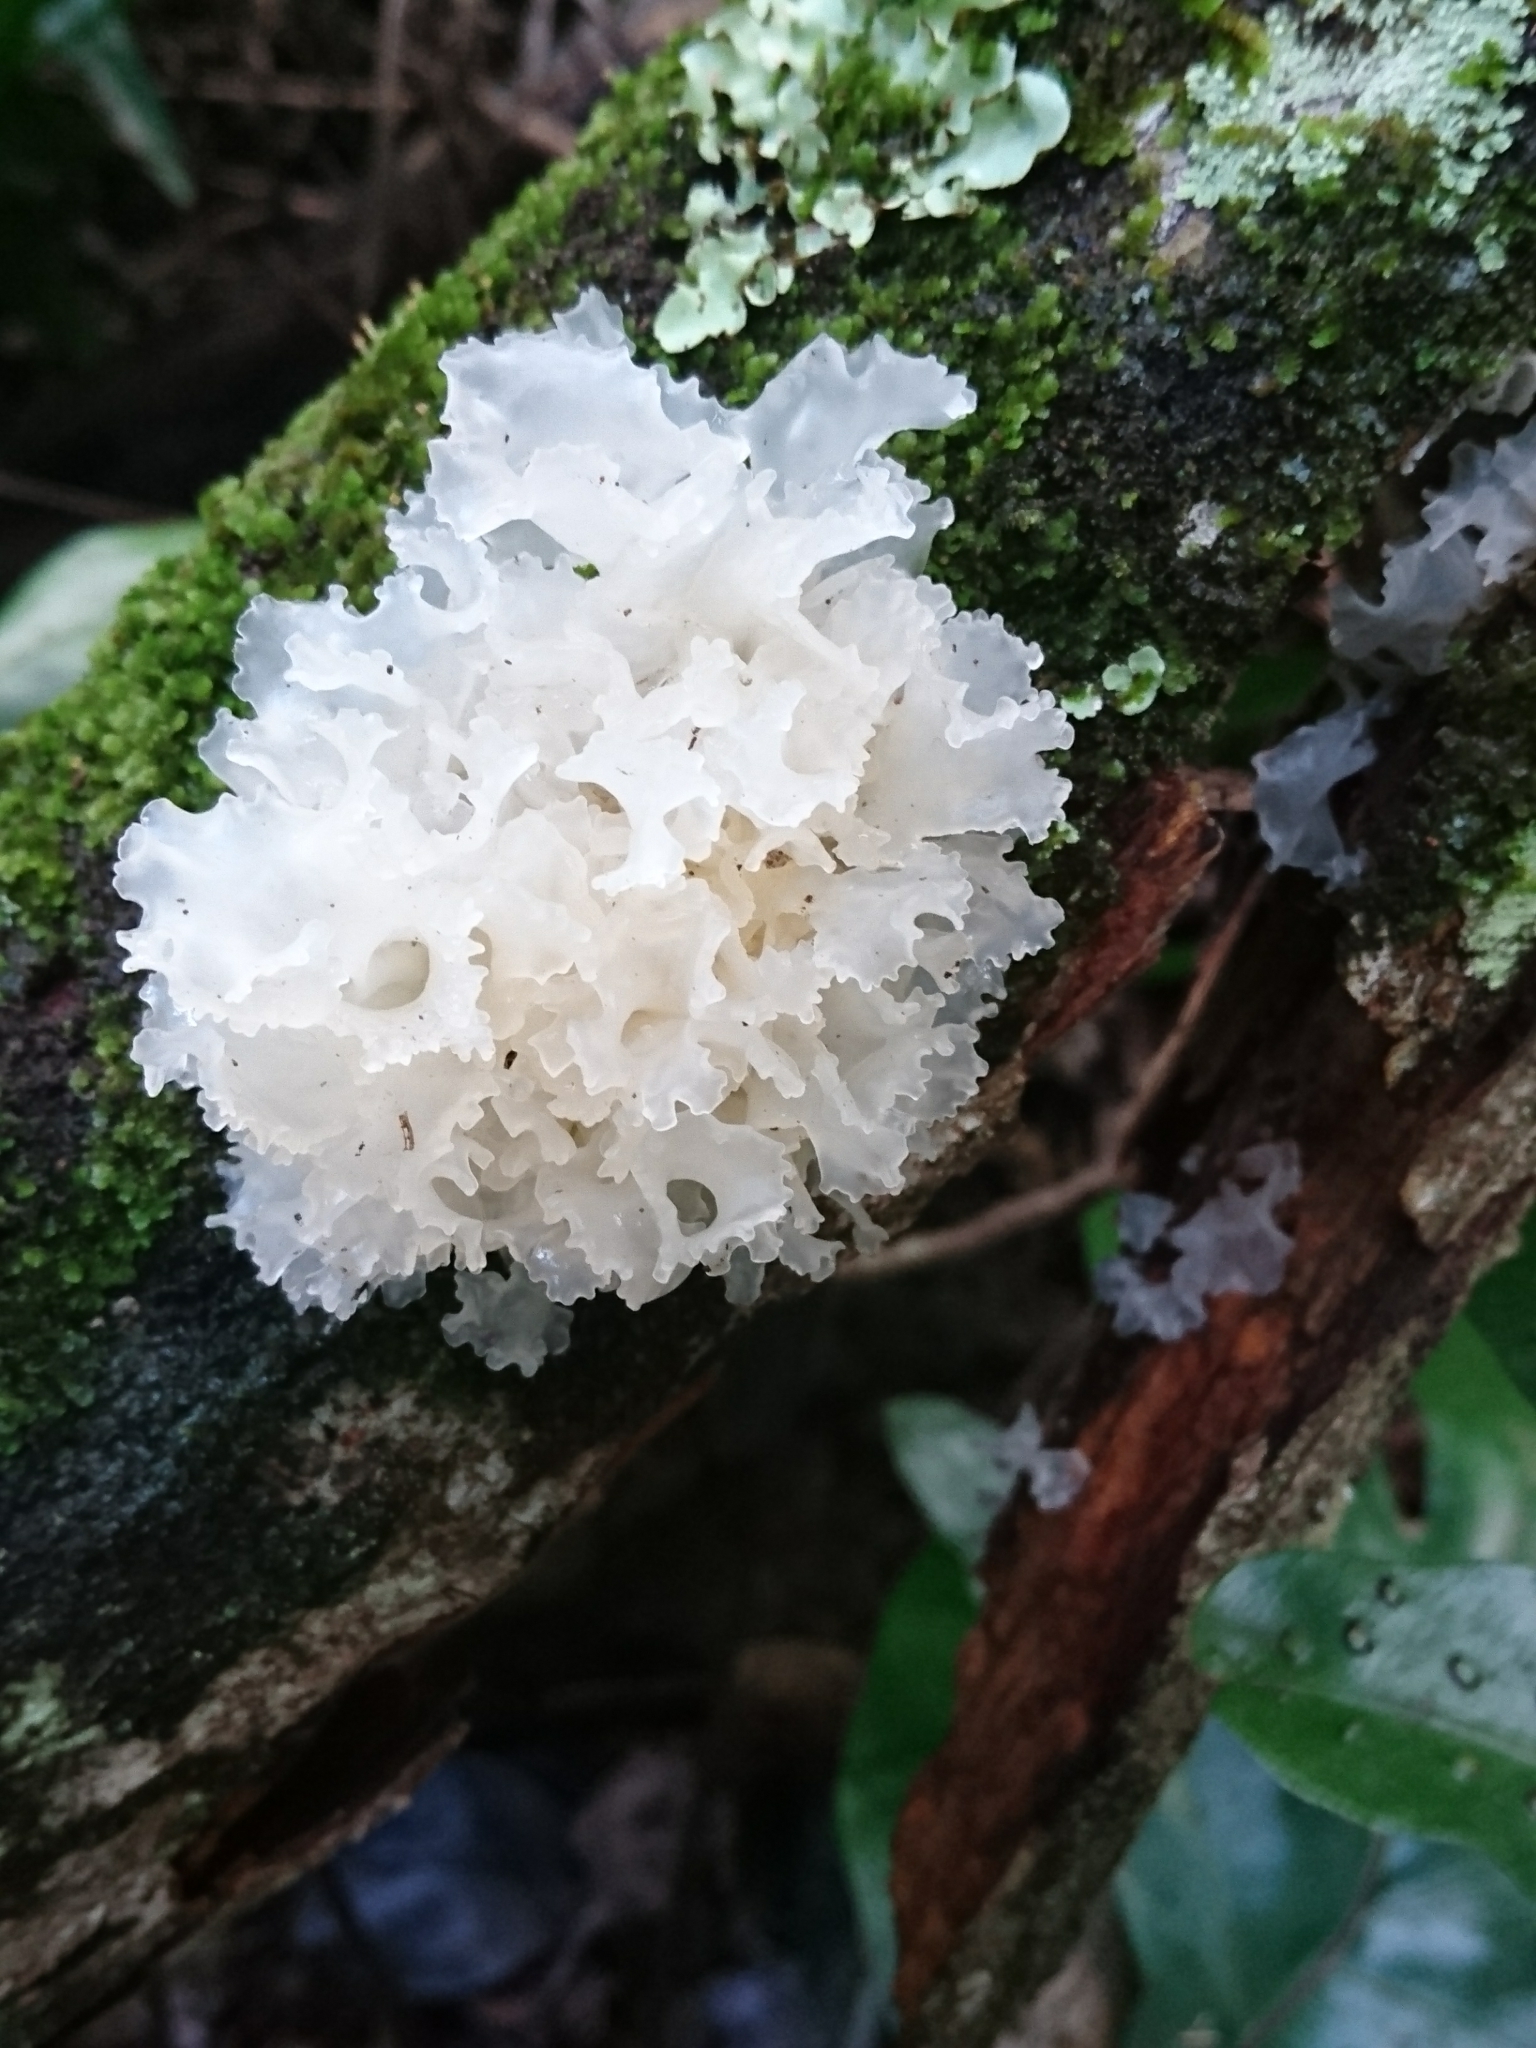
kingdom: Fungi
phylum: Basidiomycota
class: Tremellomycetes
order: Tremellales
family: Tremellaceae
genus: Tremella
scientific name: Tremella fuciformis
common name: Snow fungus
